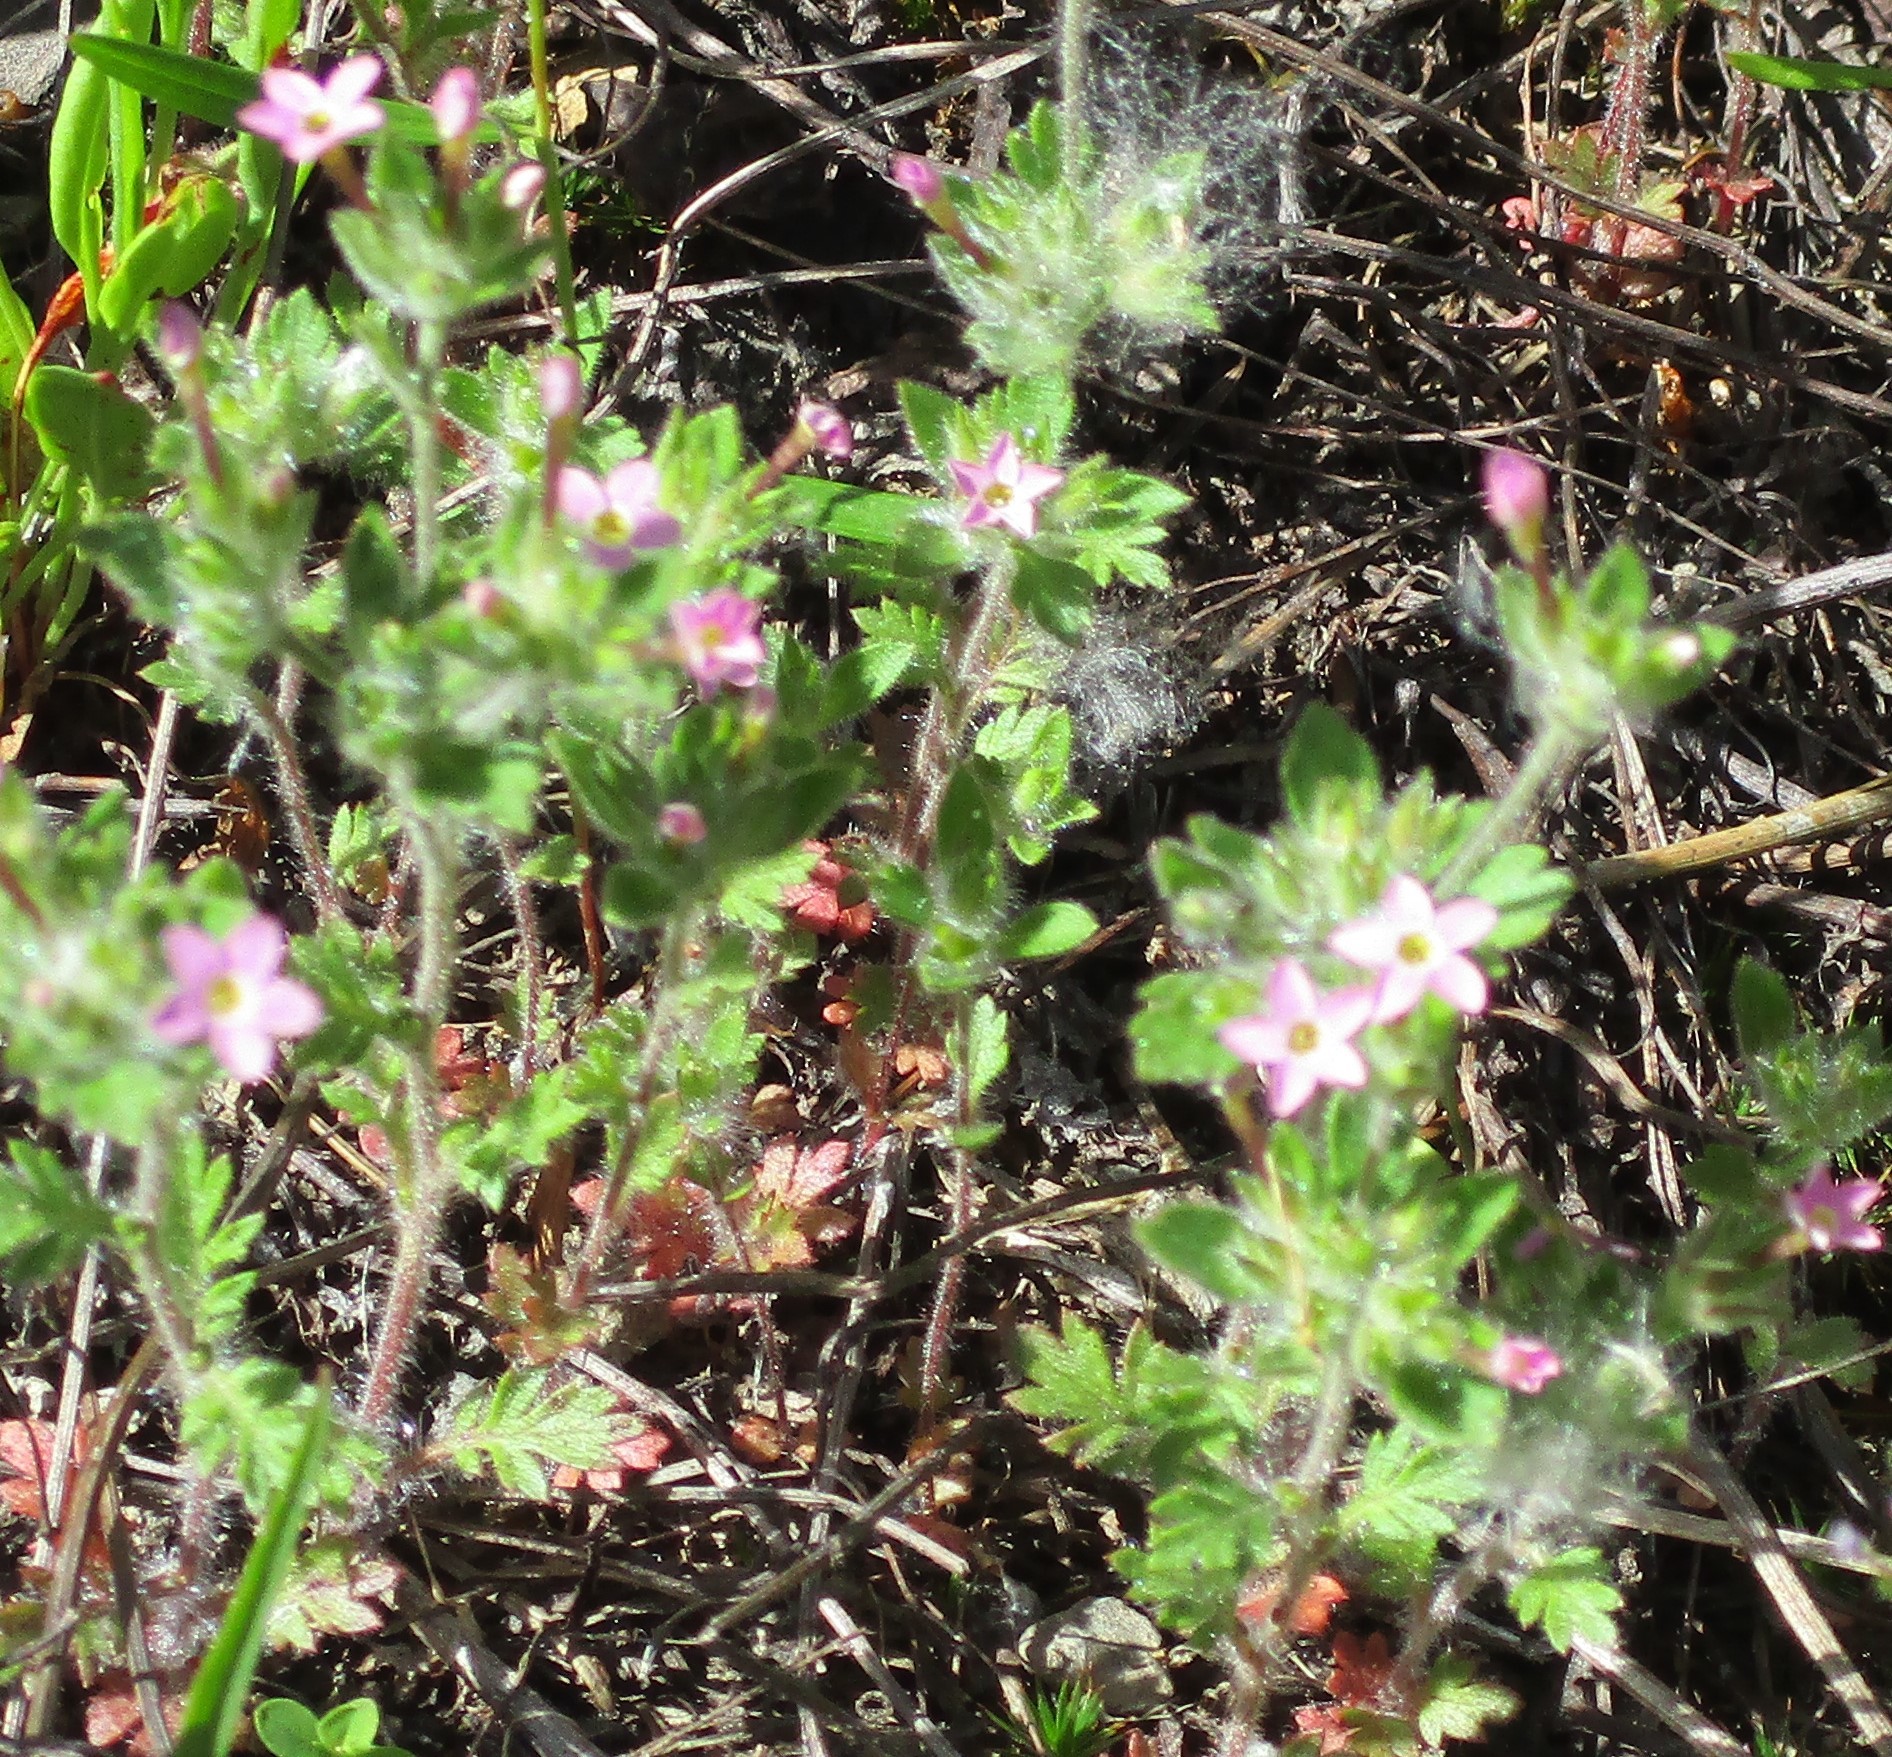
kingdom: Plantae
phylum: Tracheophyta
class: Magnoliopsida
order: Ericales
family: Polemoniaceae
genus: Collomia
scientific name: Collomia heterophylla
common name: Variable-leaved collomia
